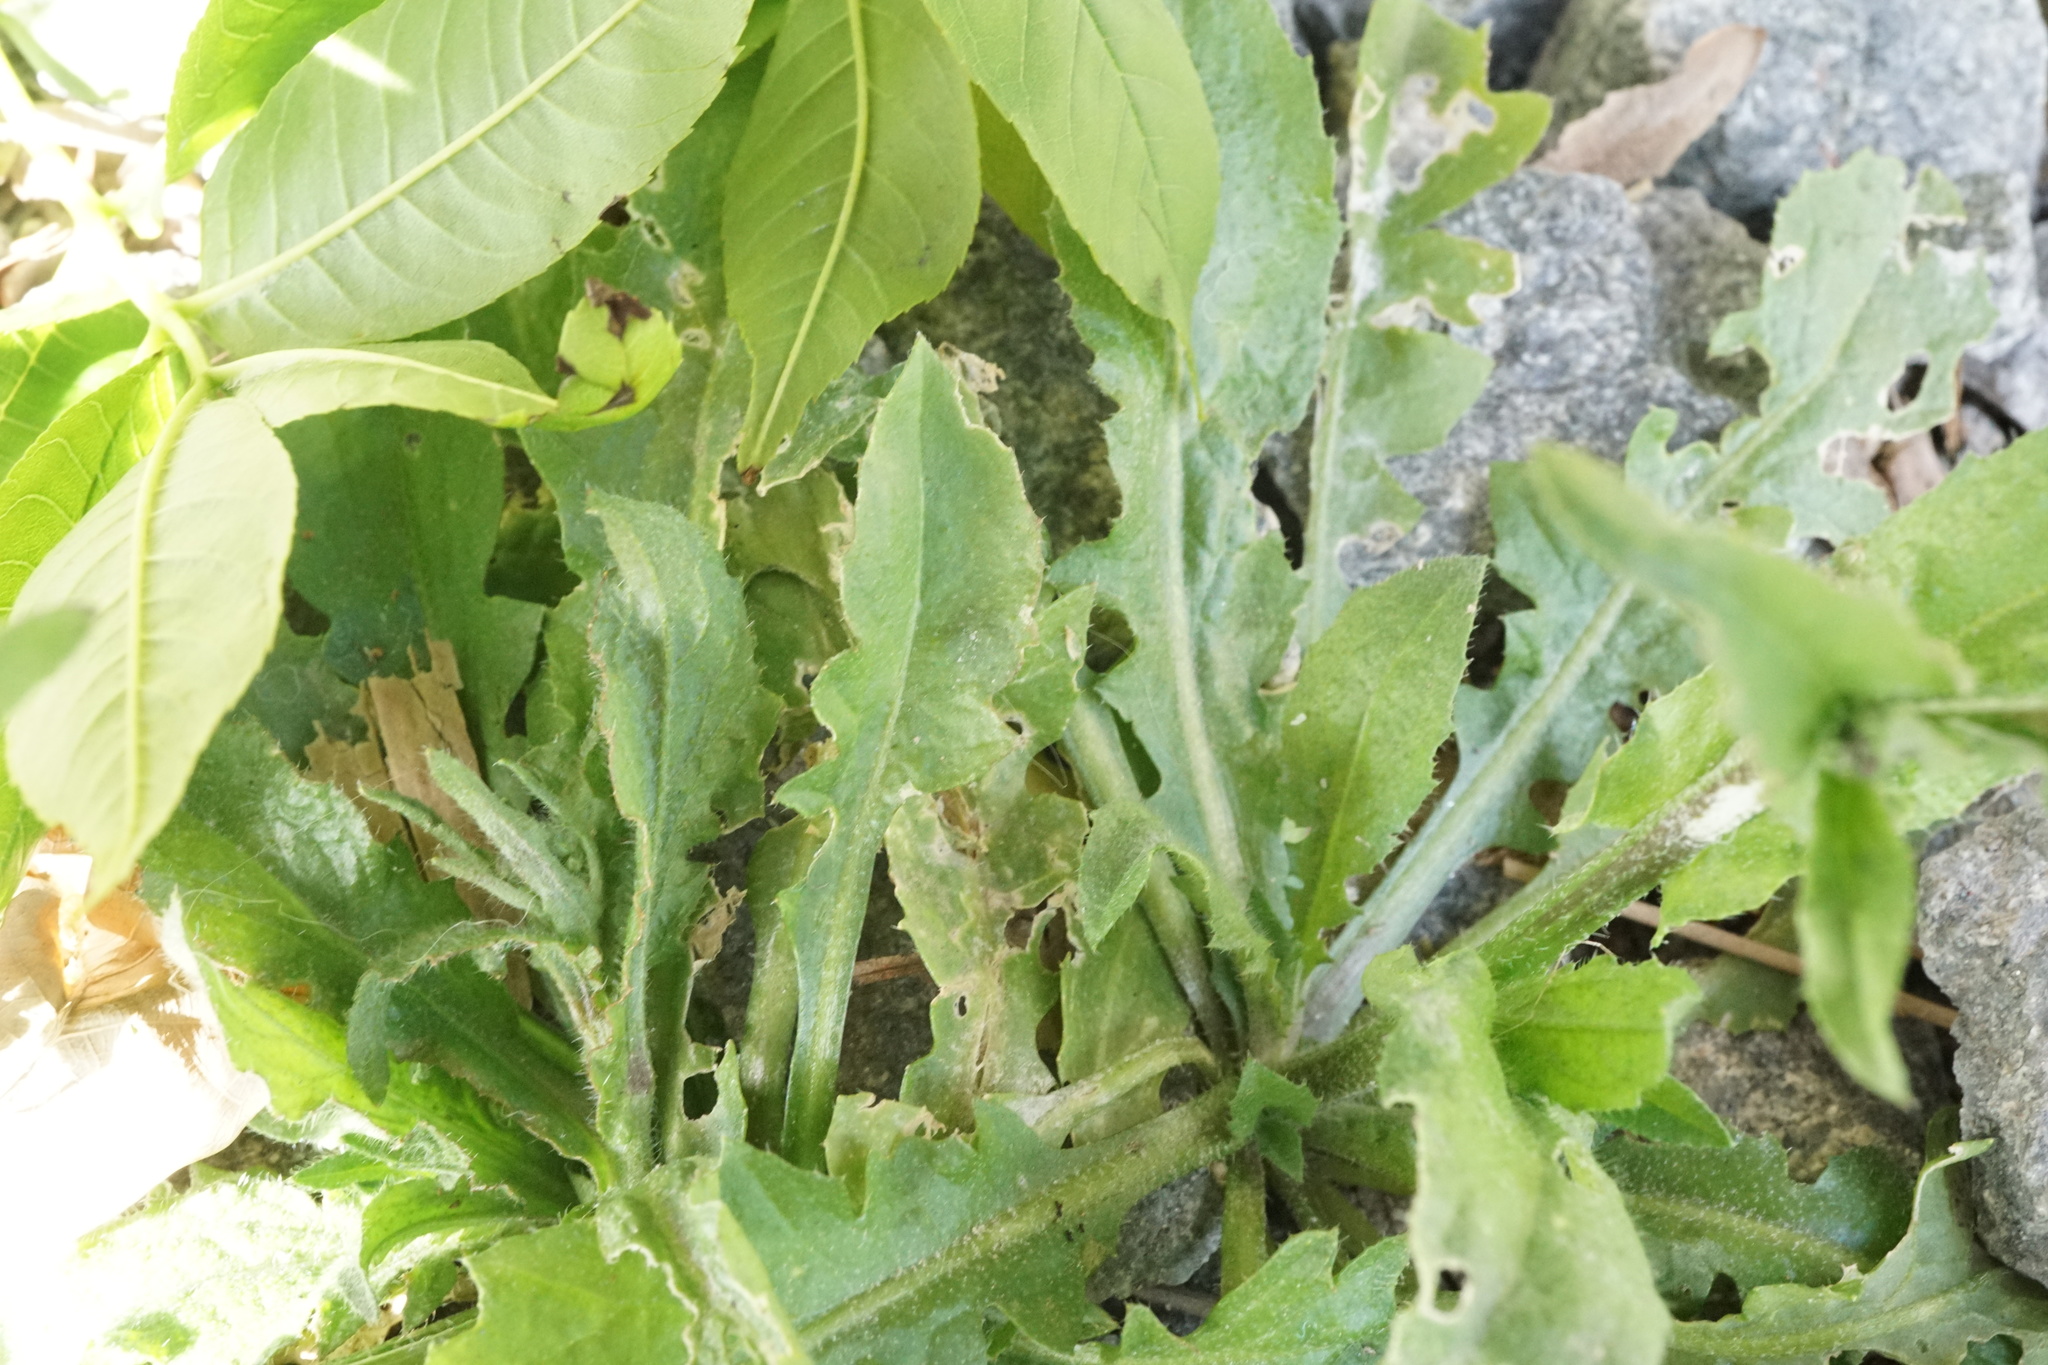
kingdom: Plantae
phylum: Tracheophyta
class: Magnoliopsida
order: Brassicales
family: Brassicaceae
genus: Capsella
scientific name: Capsella bursa-pastoris
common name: Shepherd's purse
